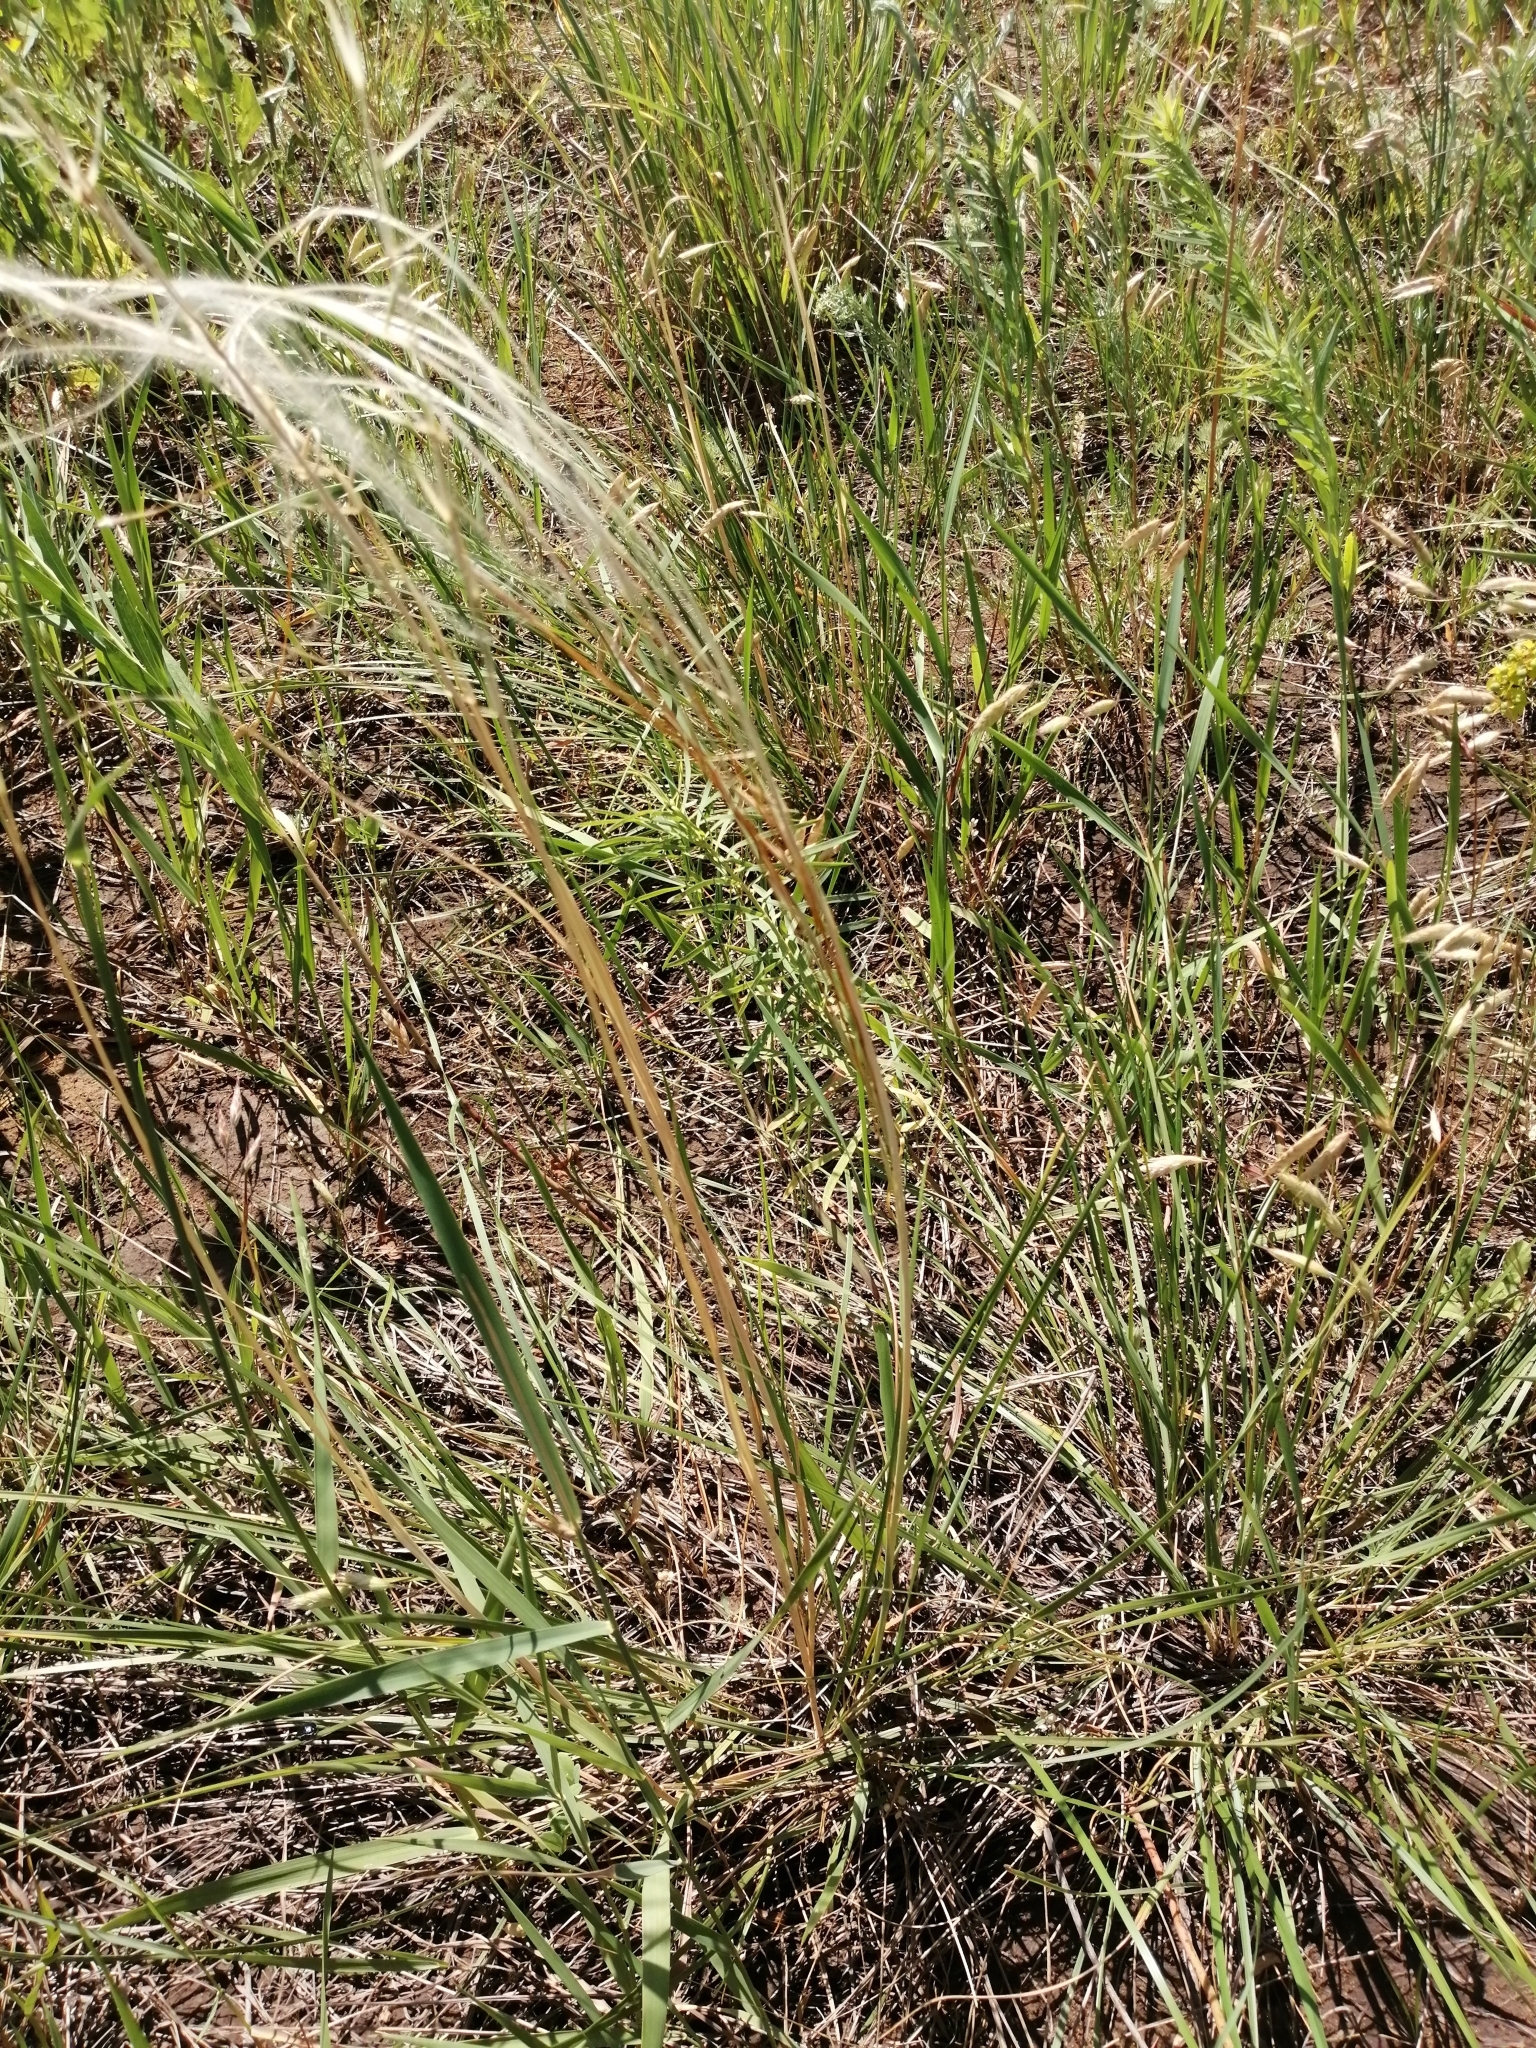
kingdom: Plantae
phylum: Tracheophyta
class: Liliopsida
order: Poales
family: Poaceae
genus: Stipa
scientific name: Stipa pennata
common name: European feather grass
